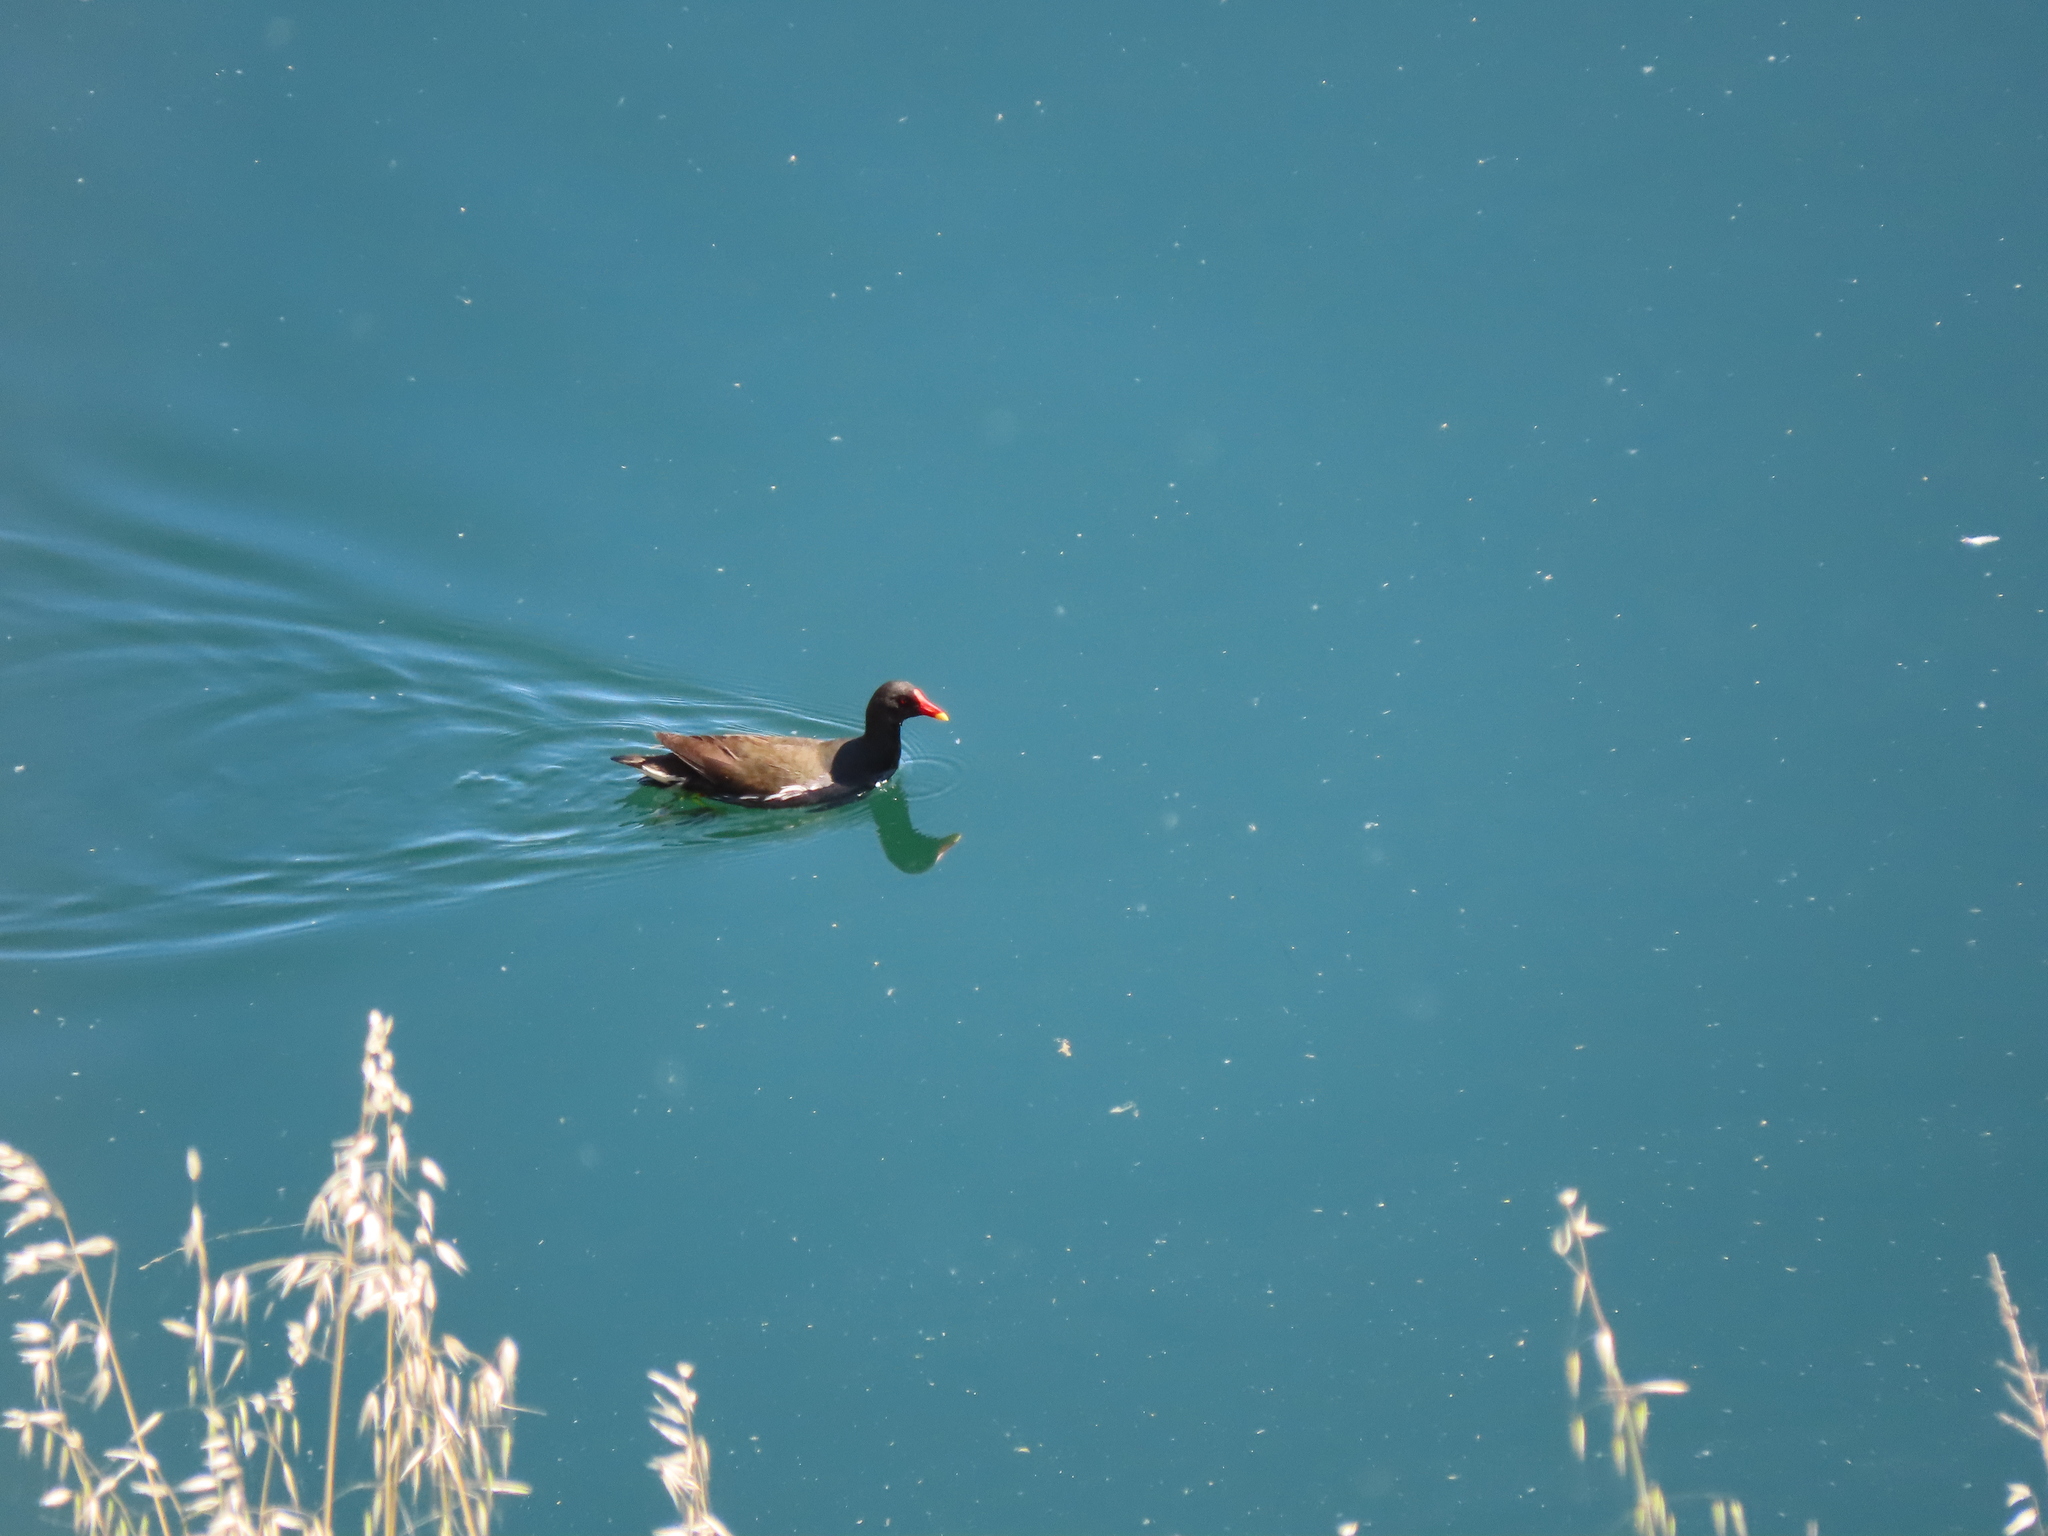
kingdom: Animalia
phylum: Chordata
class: Aves
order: Gruiformes
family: Rallidae
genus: Gallinula
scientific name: Gallinula chloropus
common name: Common moorhen
